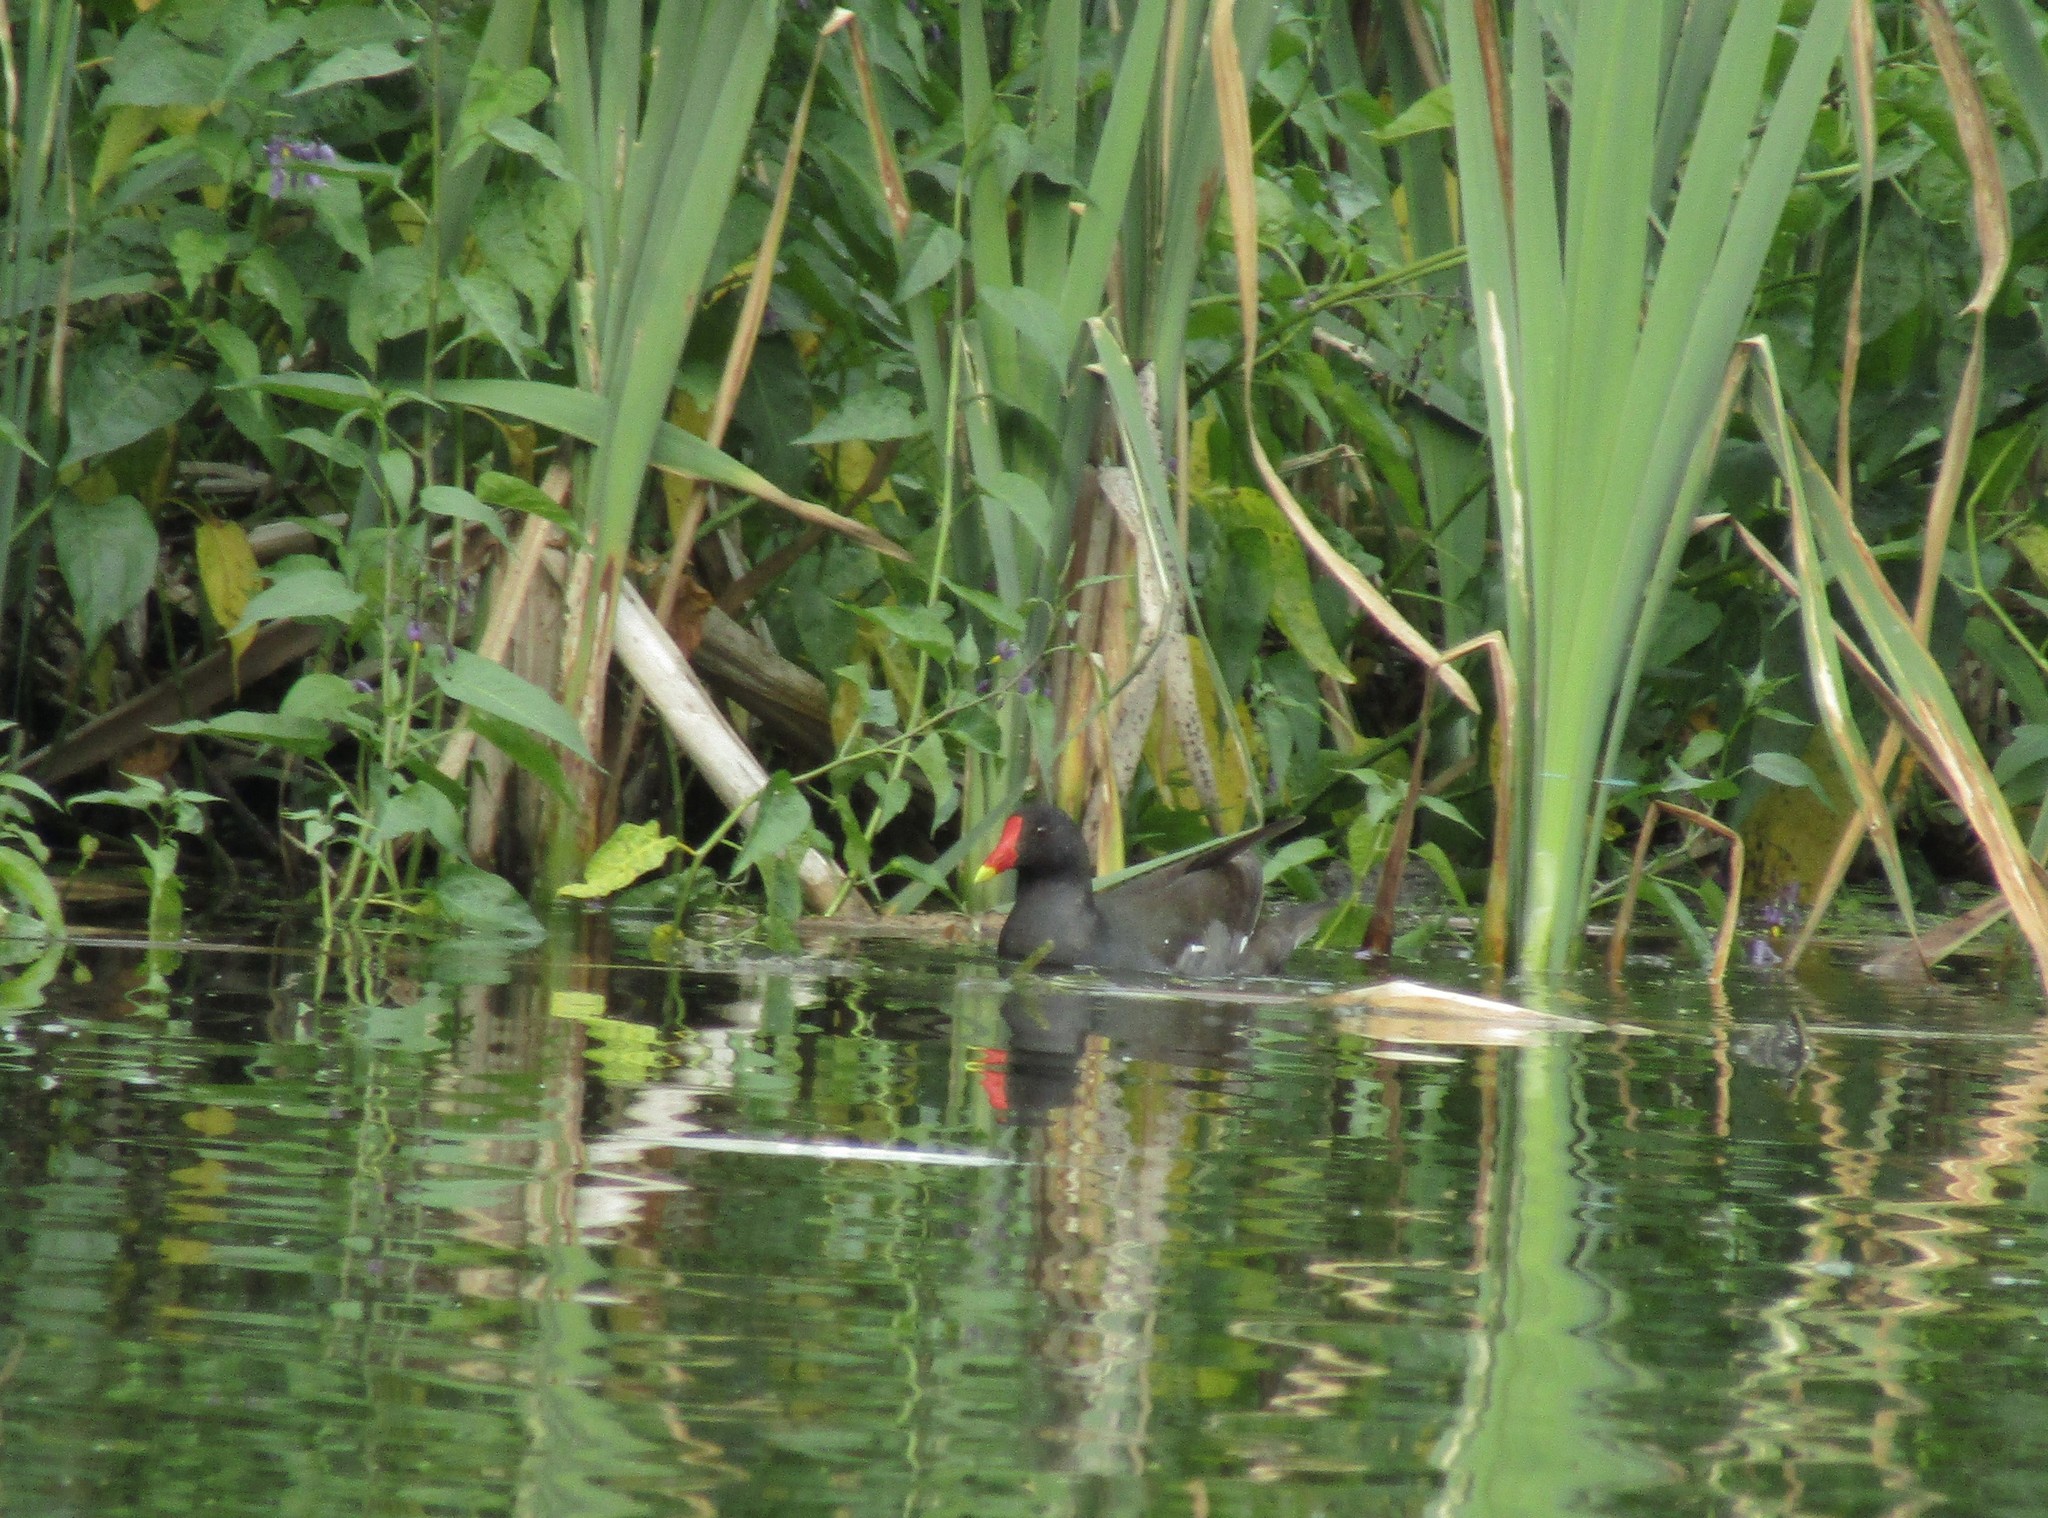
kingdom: Animalia
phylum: Chordata
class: Aves
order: Gruiformes
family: Rallidae
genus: Gallinula
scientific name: Gallinula chloropus
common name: Common moorhen
